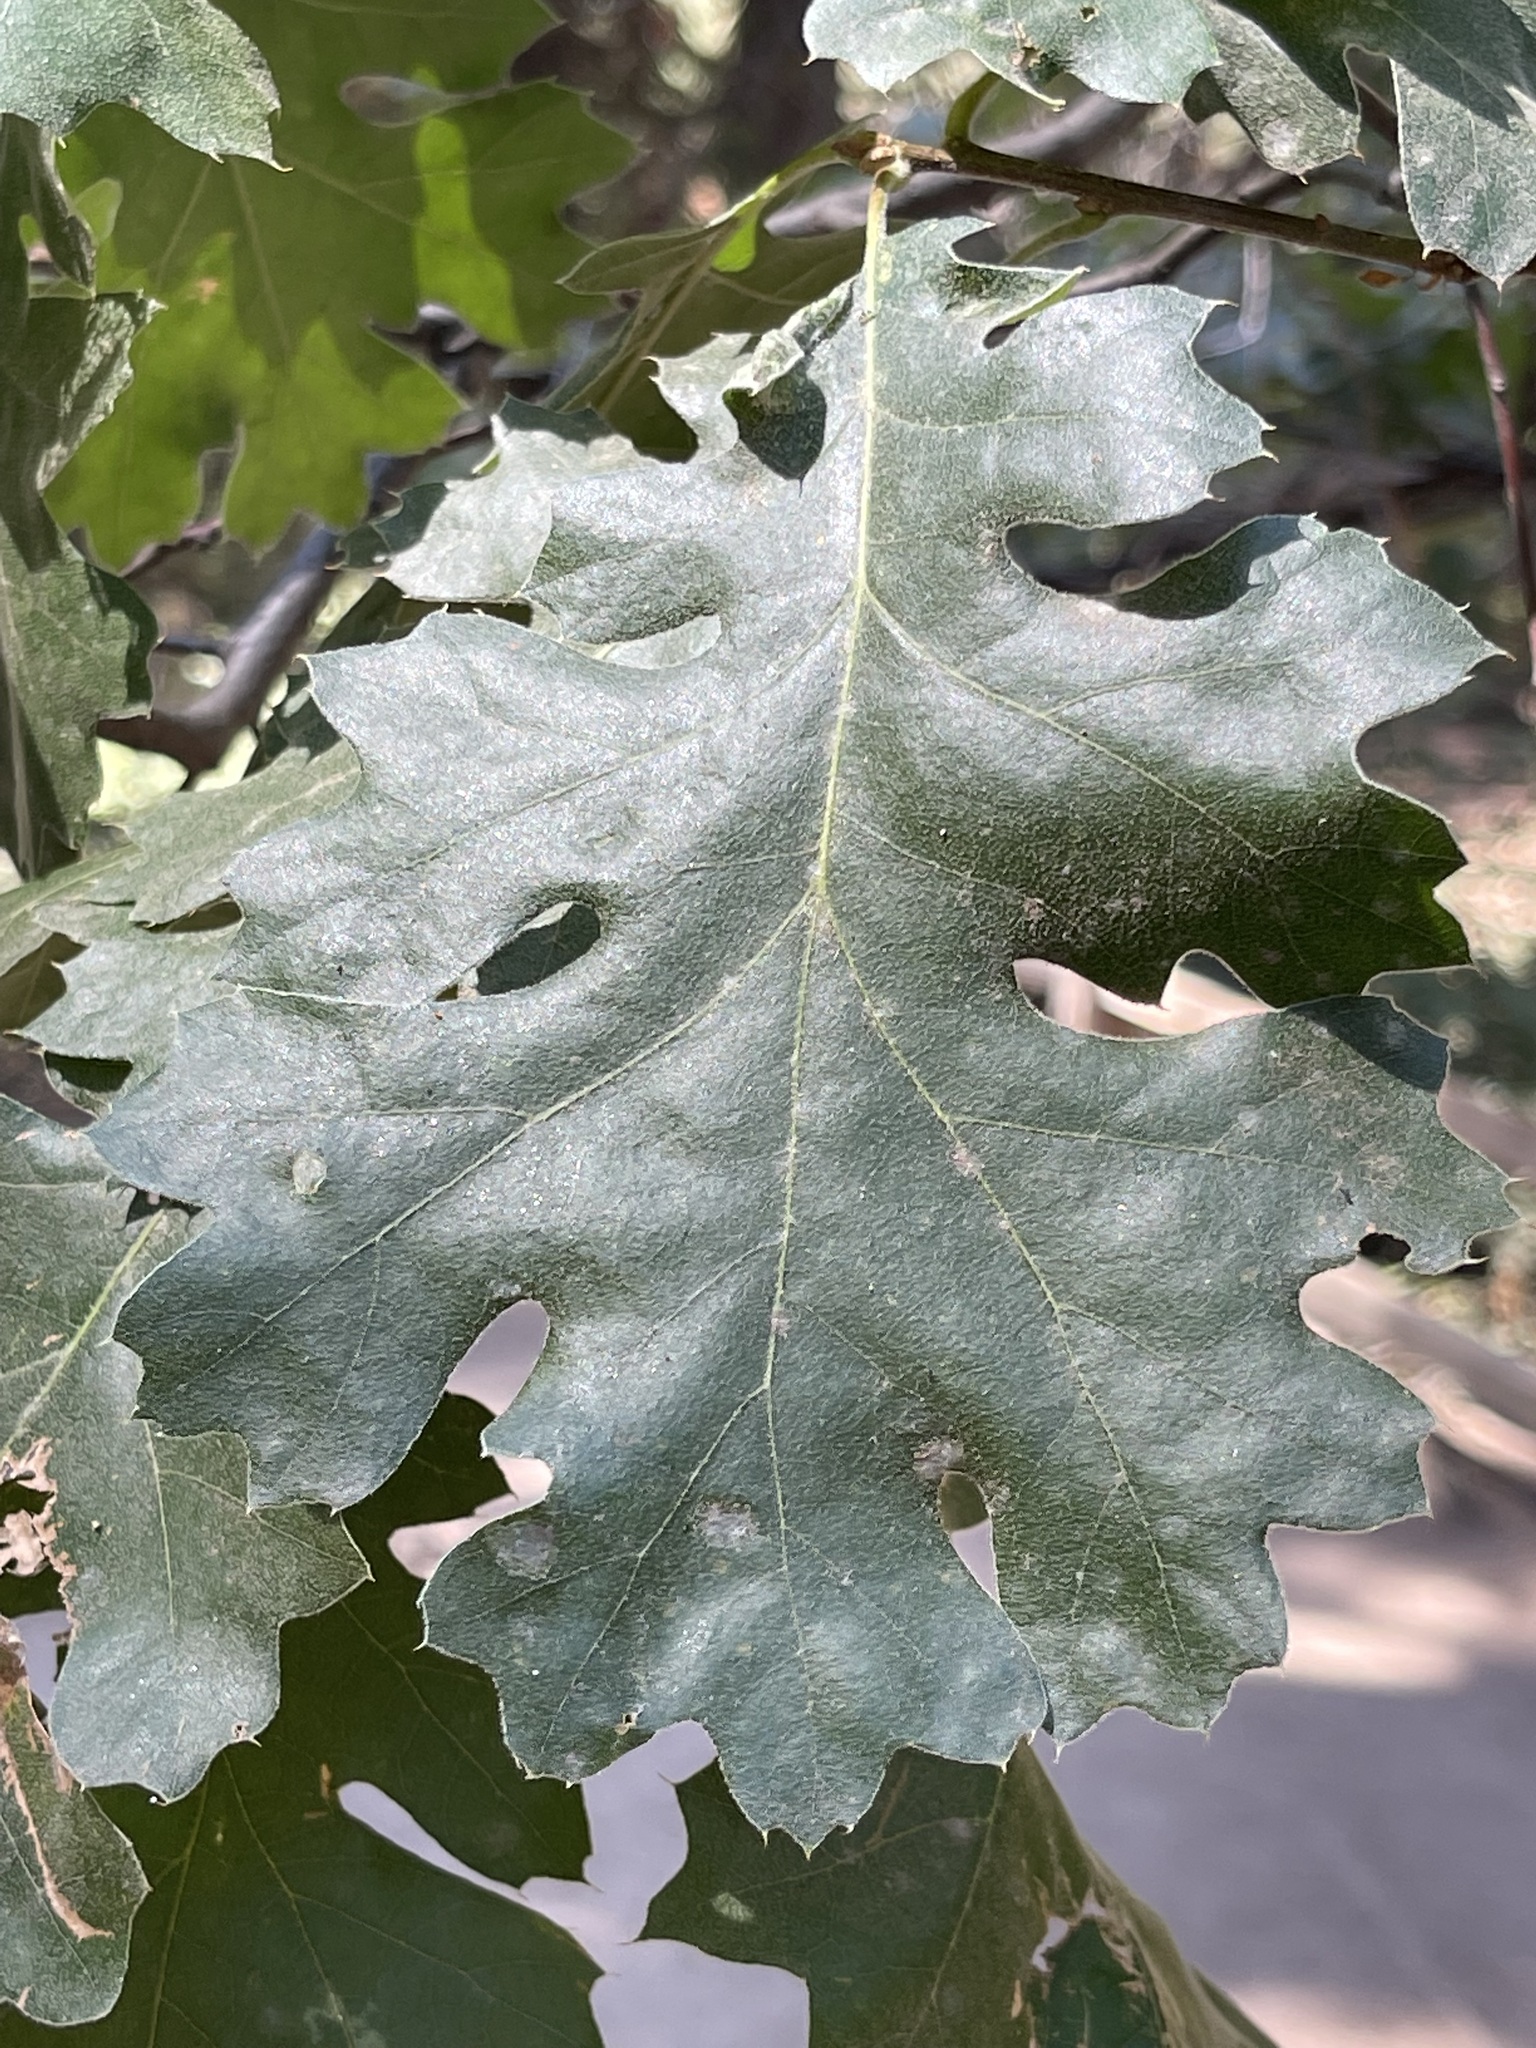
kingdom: Plantae
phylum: Tracheophyta
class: Magnoliopsida
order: Fagales
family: Fagaceae
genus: Quercus
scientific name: Quercus kelloggii
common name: California black oak
